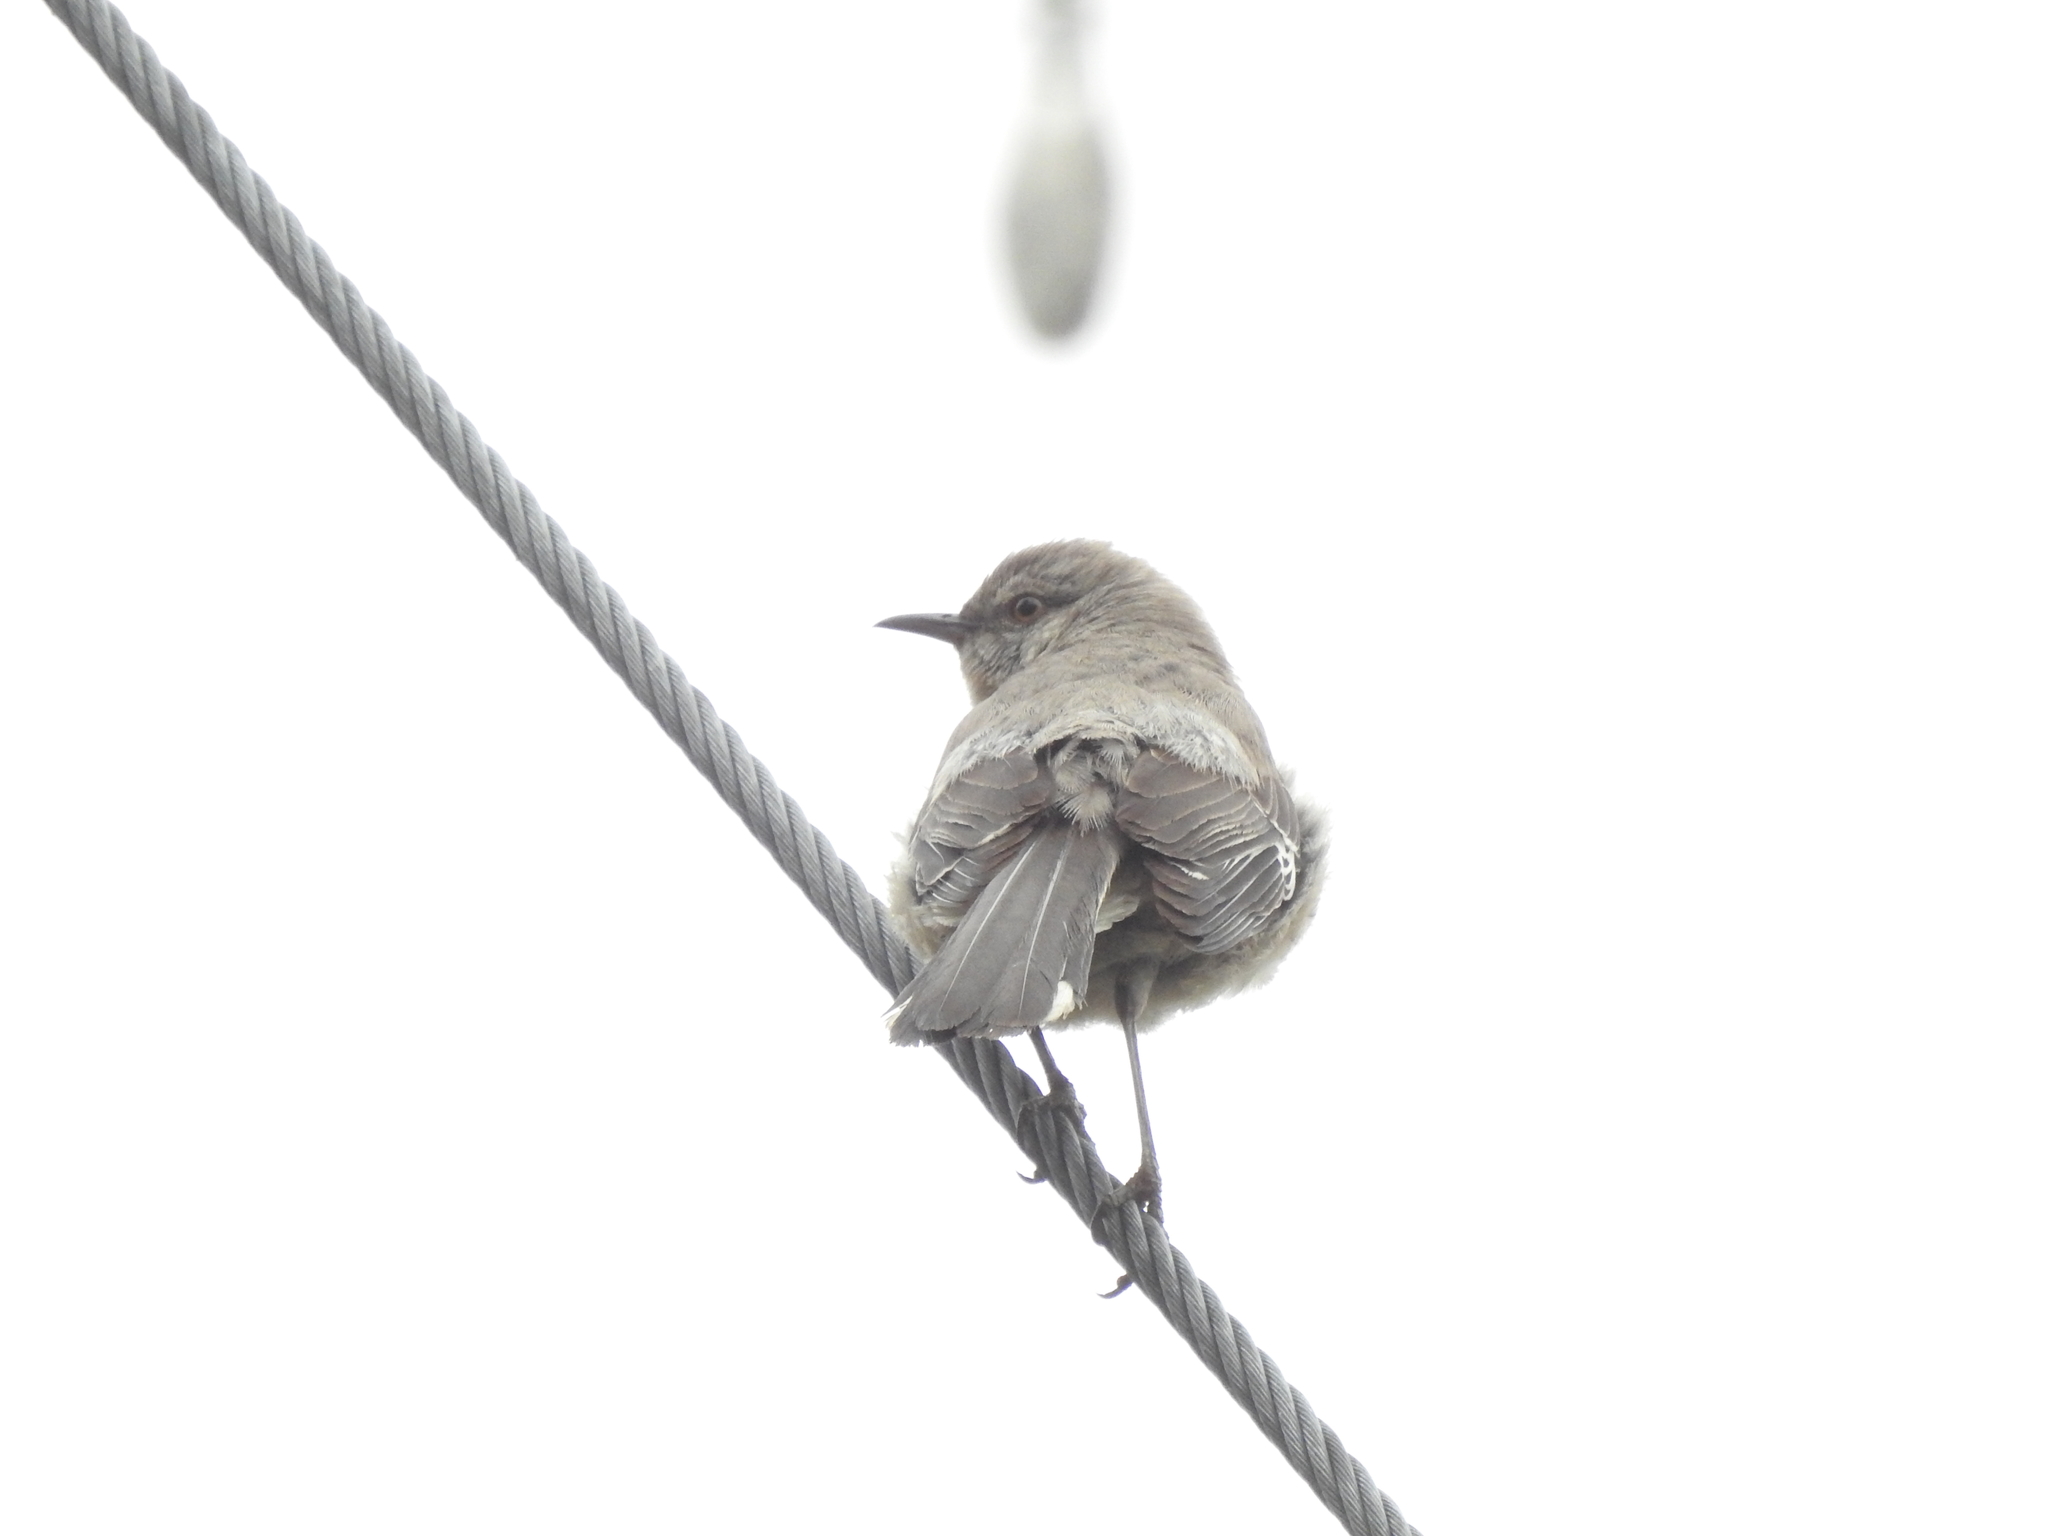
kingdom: Animalia
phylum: Chordata
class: Aves
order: Passeriformes
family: Mimidae
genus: Mimus
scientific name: Mimus polyglottos
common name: Northern mockingbird
